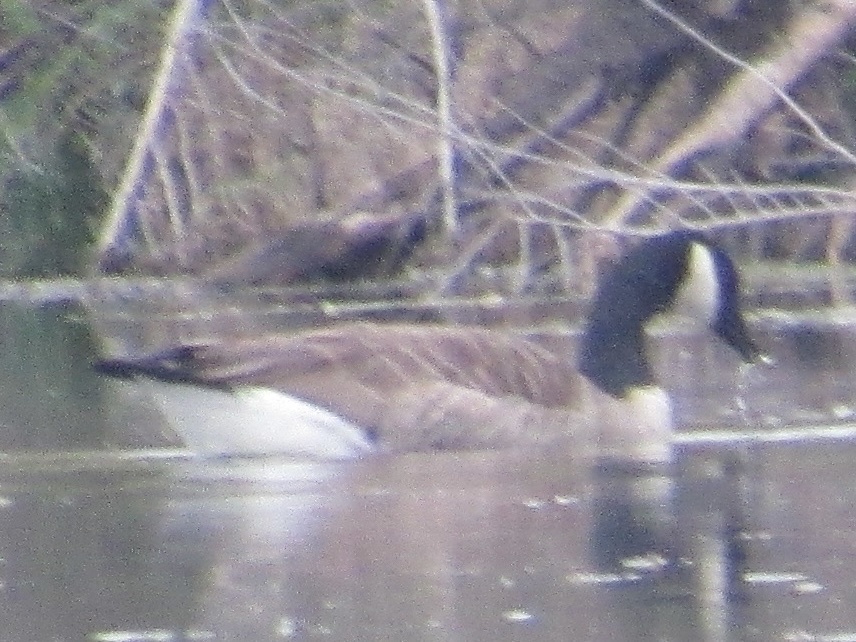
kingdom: Animalia
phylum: Chordata
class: Aves
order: Anseriformes
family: Anatidae
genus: Branta
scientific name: Branta canadensis
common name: Canada goose
